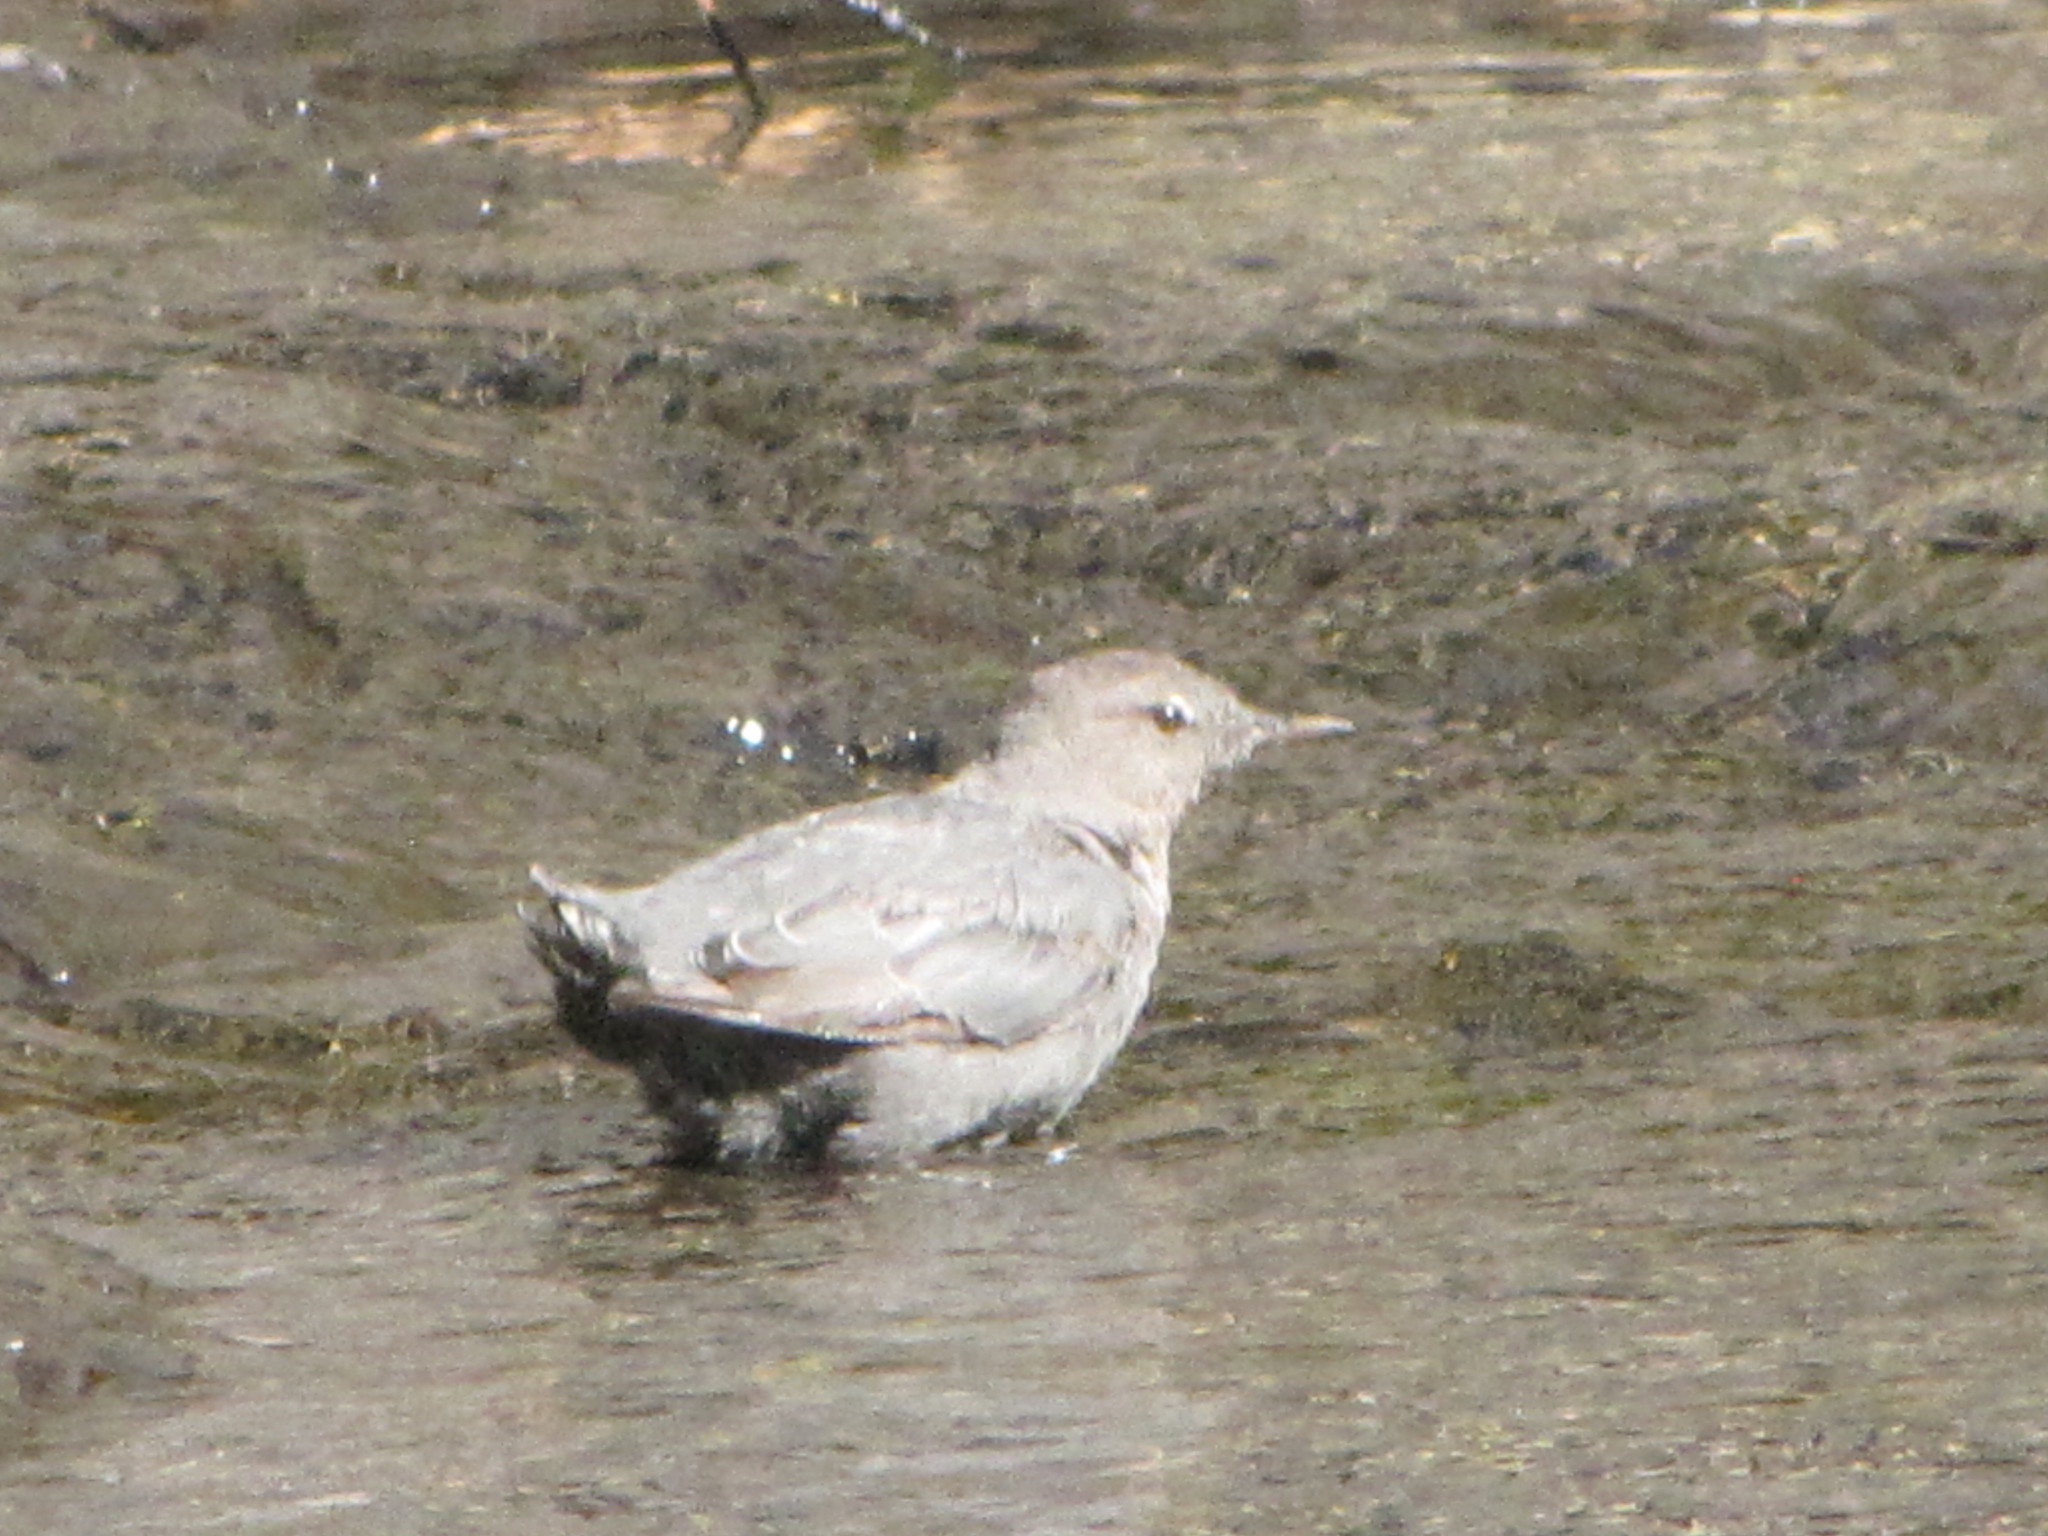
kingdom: Animalia
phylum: Chordata
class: Aves
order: Passeriformes
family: Cinclidae
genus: Cinclus
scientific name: Cinclus mexicanus
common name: American dipper
